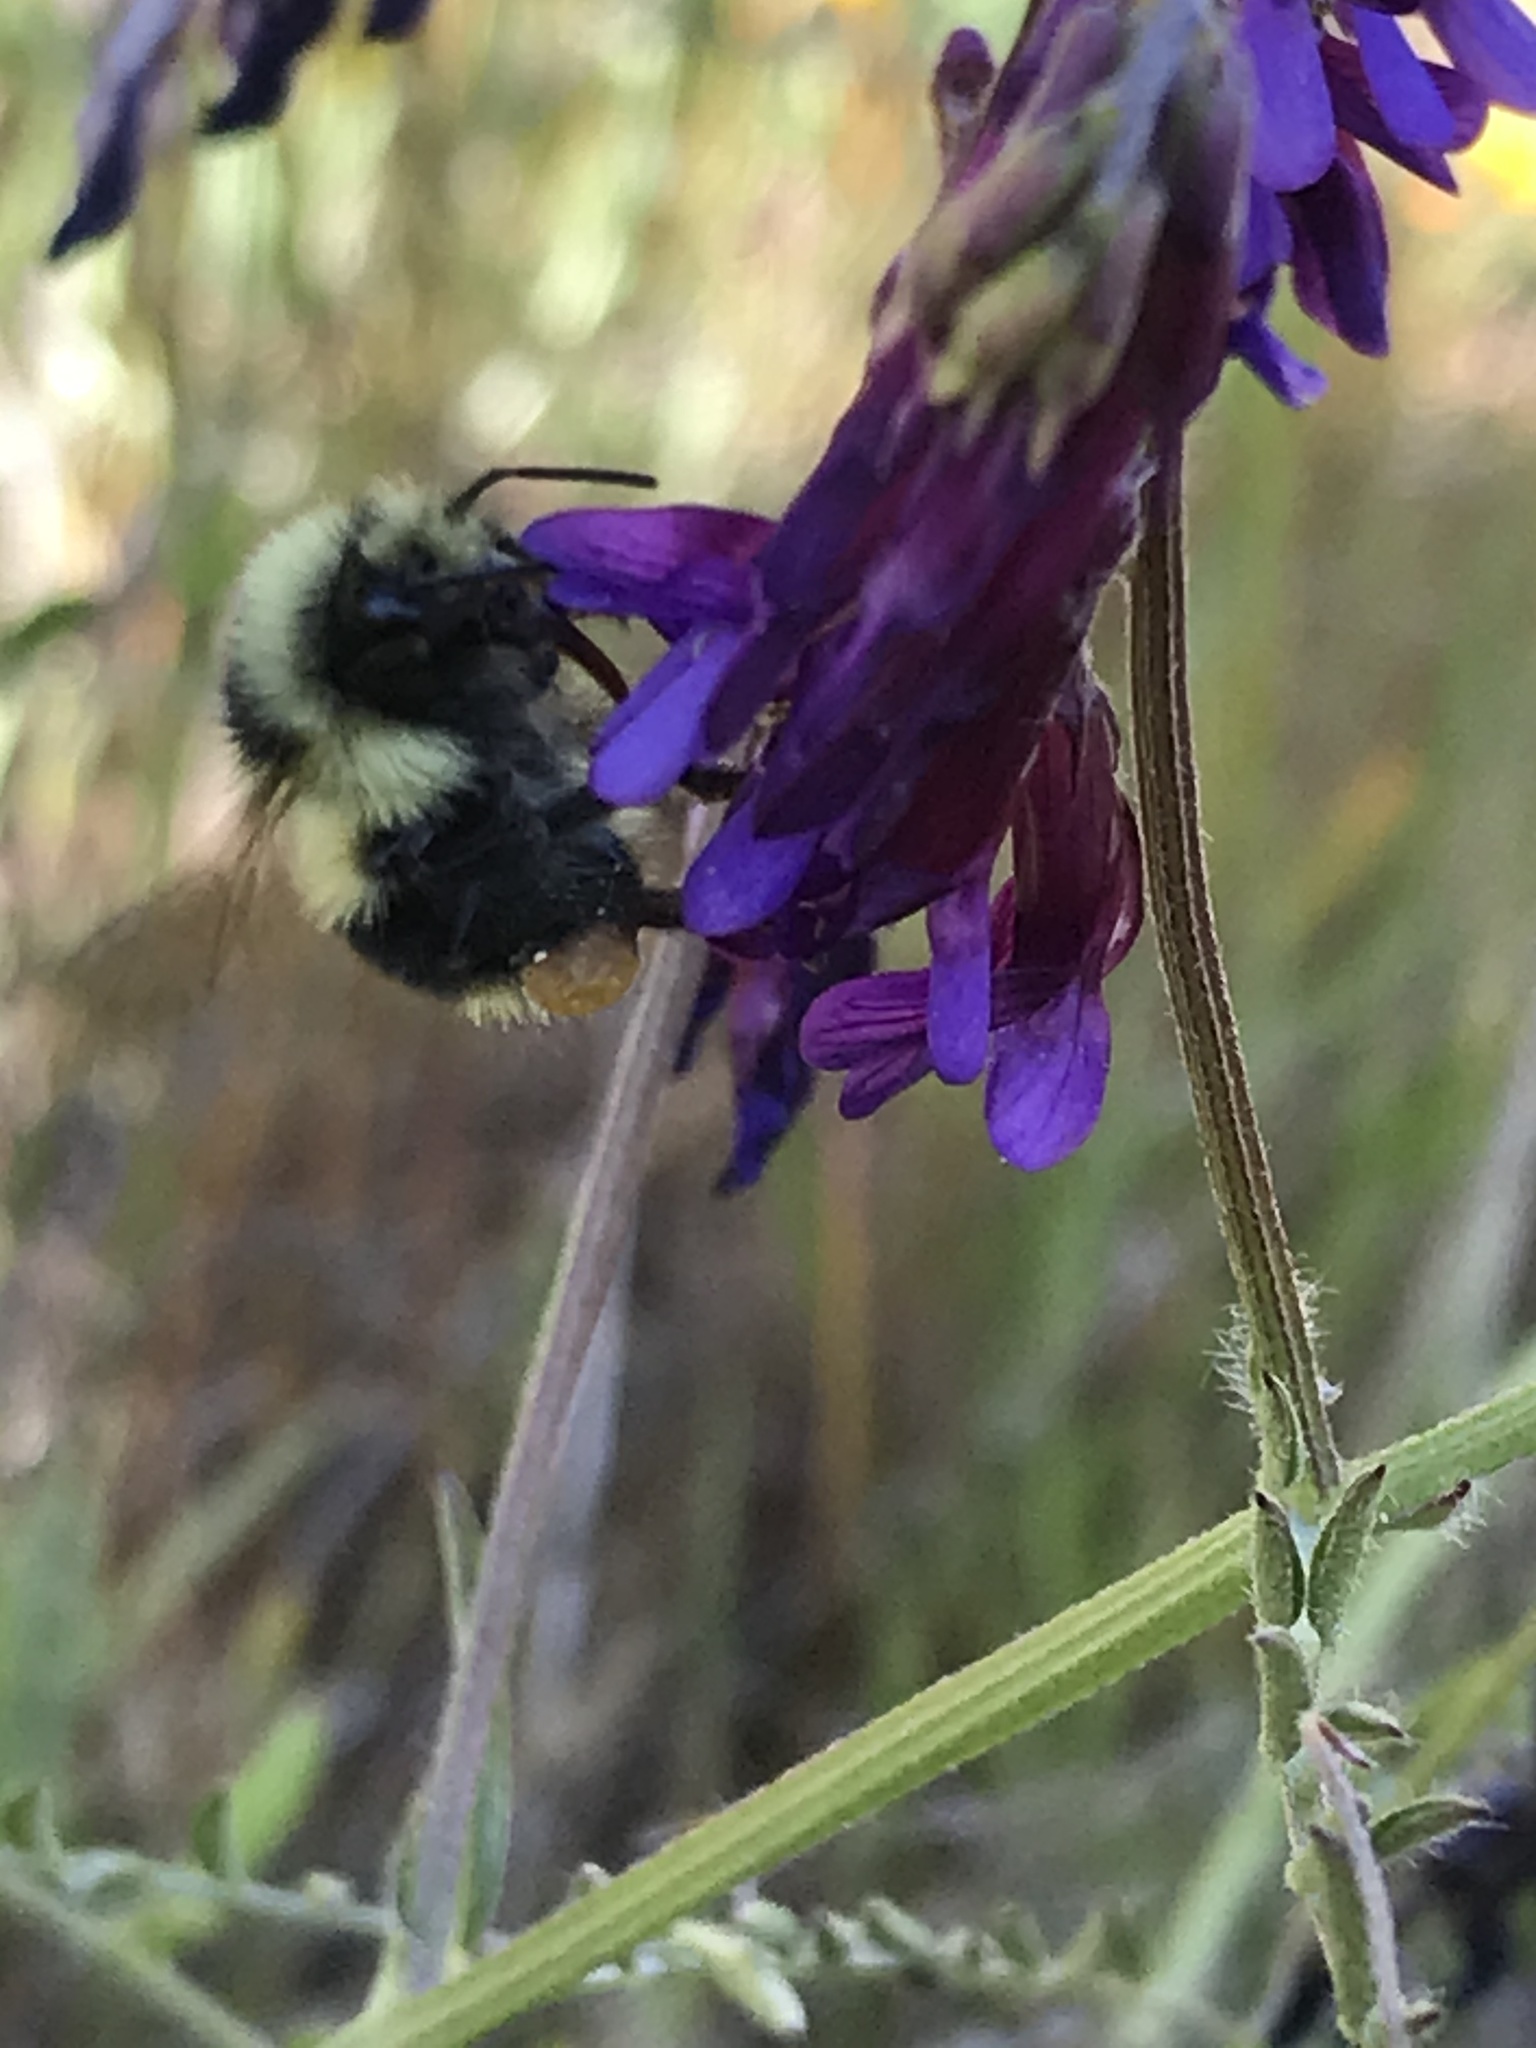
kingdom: Animalia
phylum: Arthropoda
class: Insecta
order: Hymenoptera
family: Apidae
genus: Bombus
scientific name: Bombus melanopygus
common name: Black tail bumble bee
